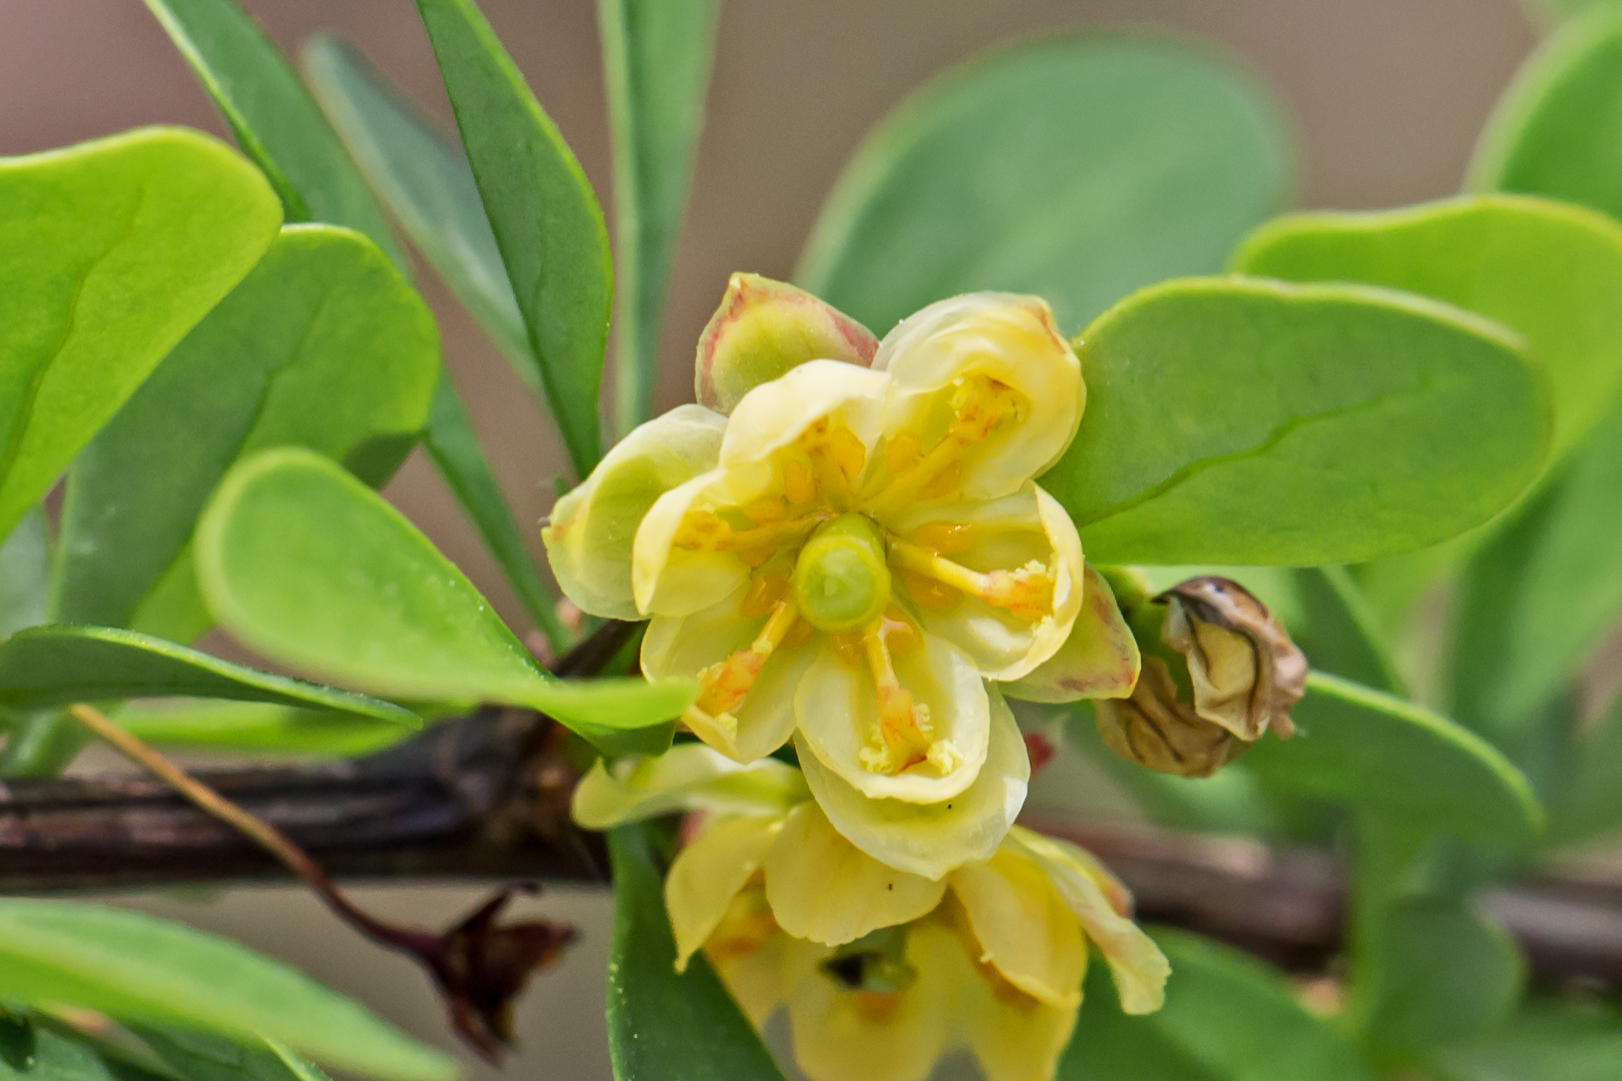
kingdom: Plantae
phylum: Tracheophyta
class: Magnoliopsida
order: Ranunculales
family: Berberidaceae
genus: Berberis
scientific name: Berberis thunbergii
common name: Japanese barberry
